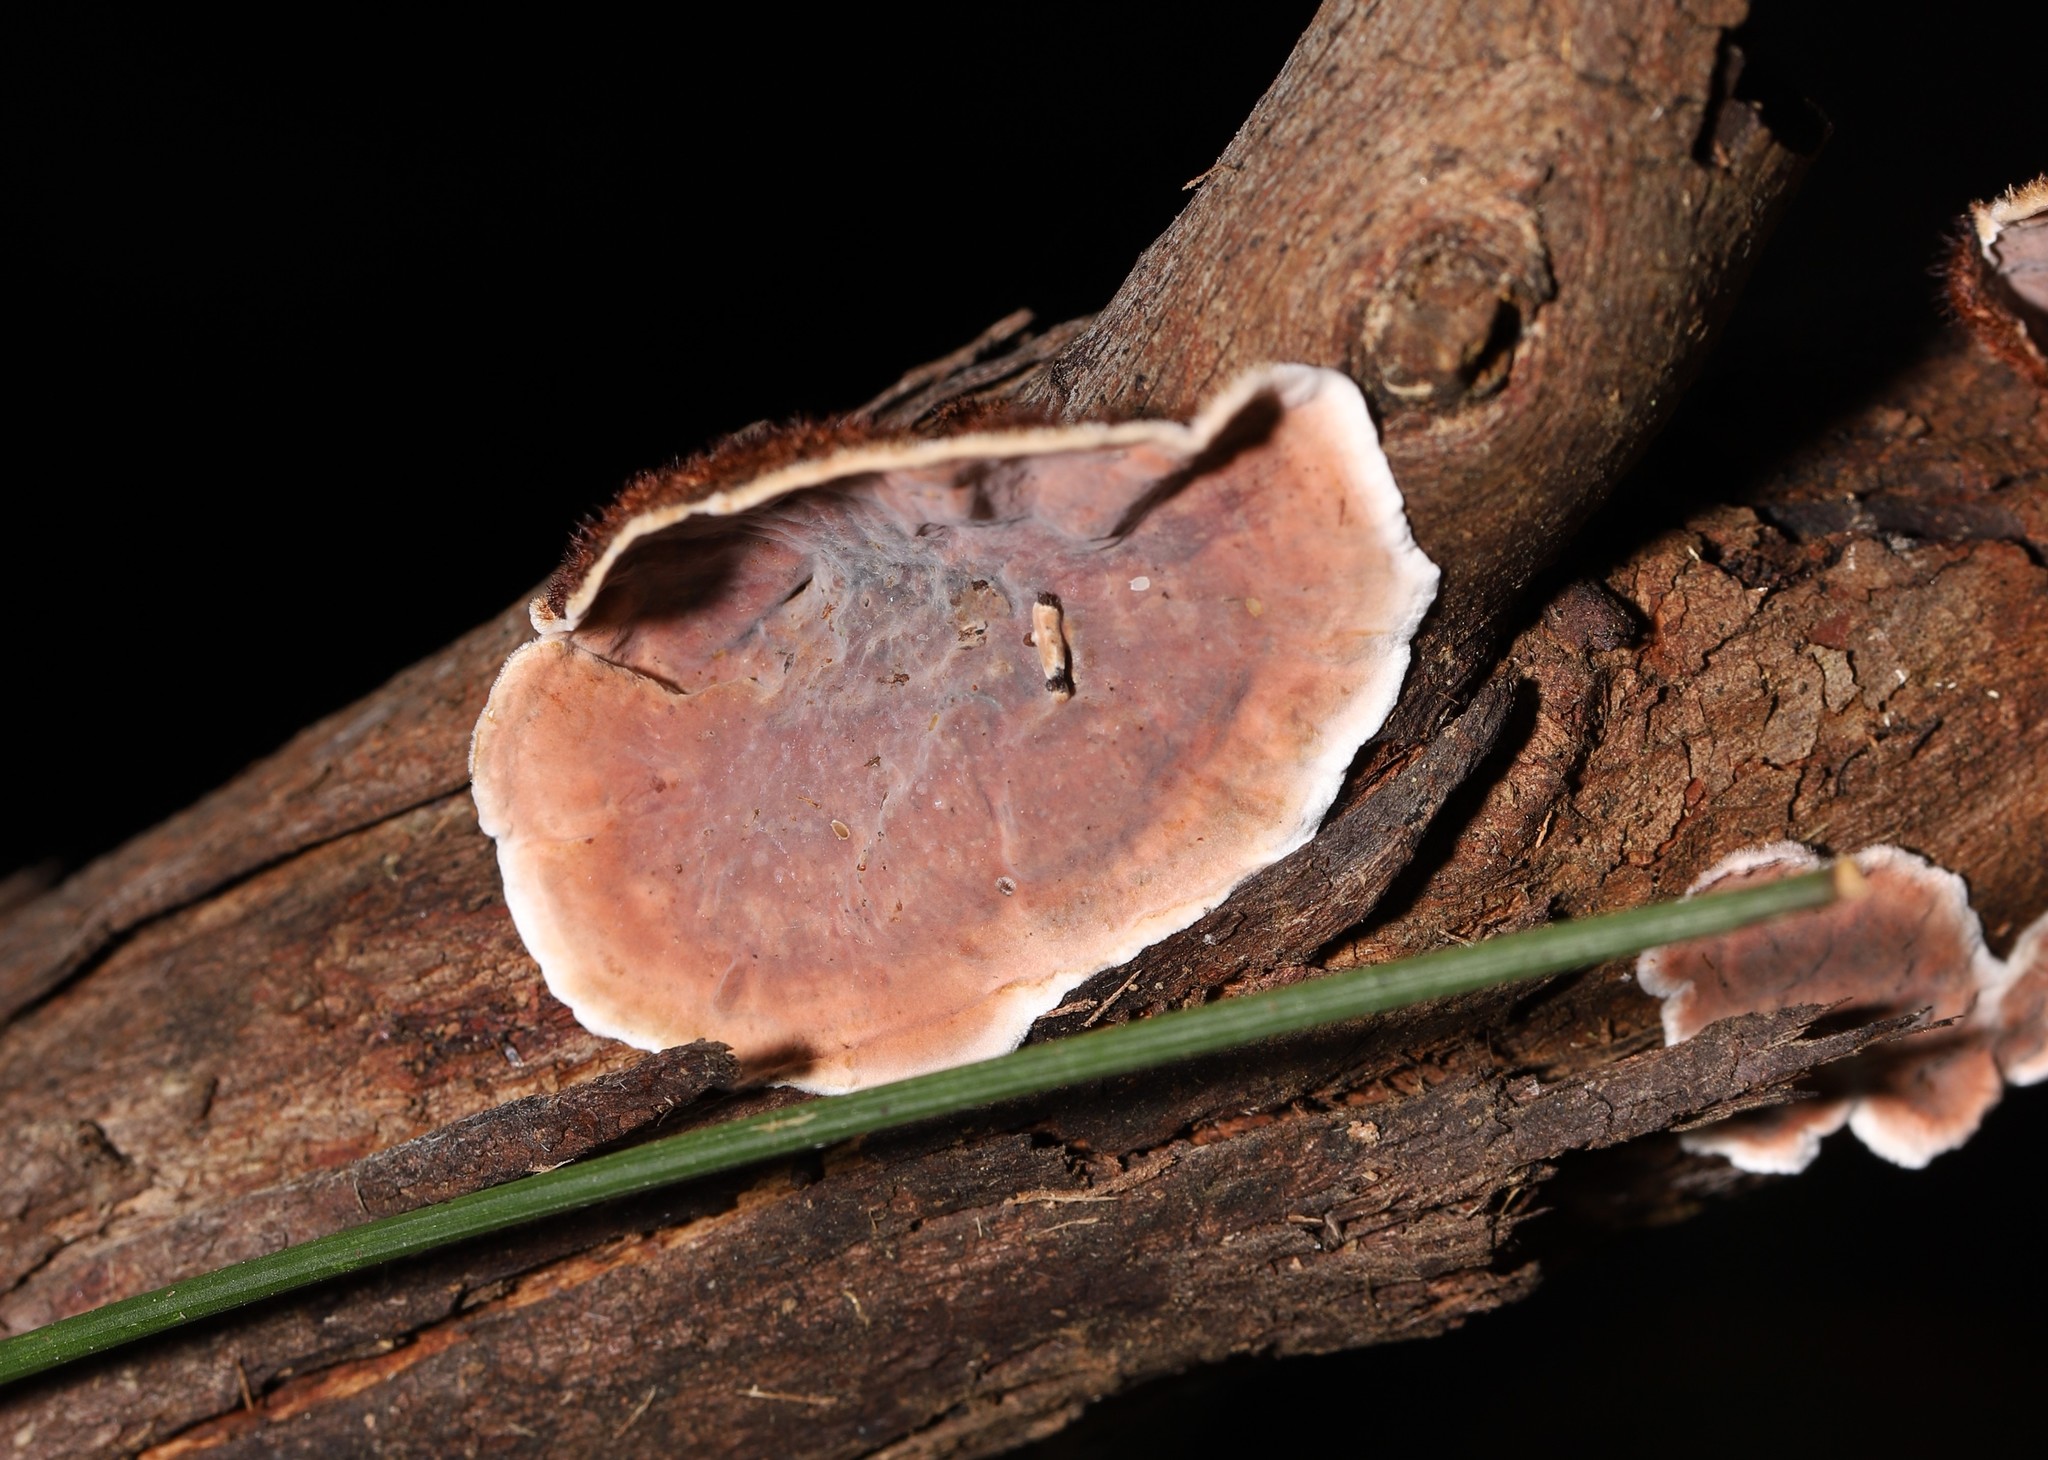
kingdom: Fungi
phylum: Basidiomycota
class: Agaricomycetes
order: Russulales
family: Stereaceae
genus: Xylobolus
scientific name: Xylobolus illudens
